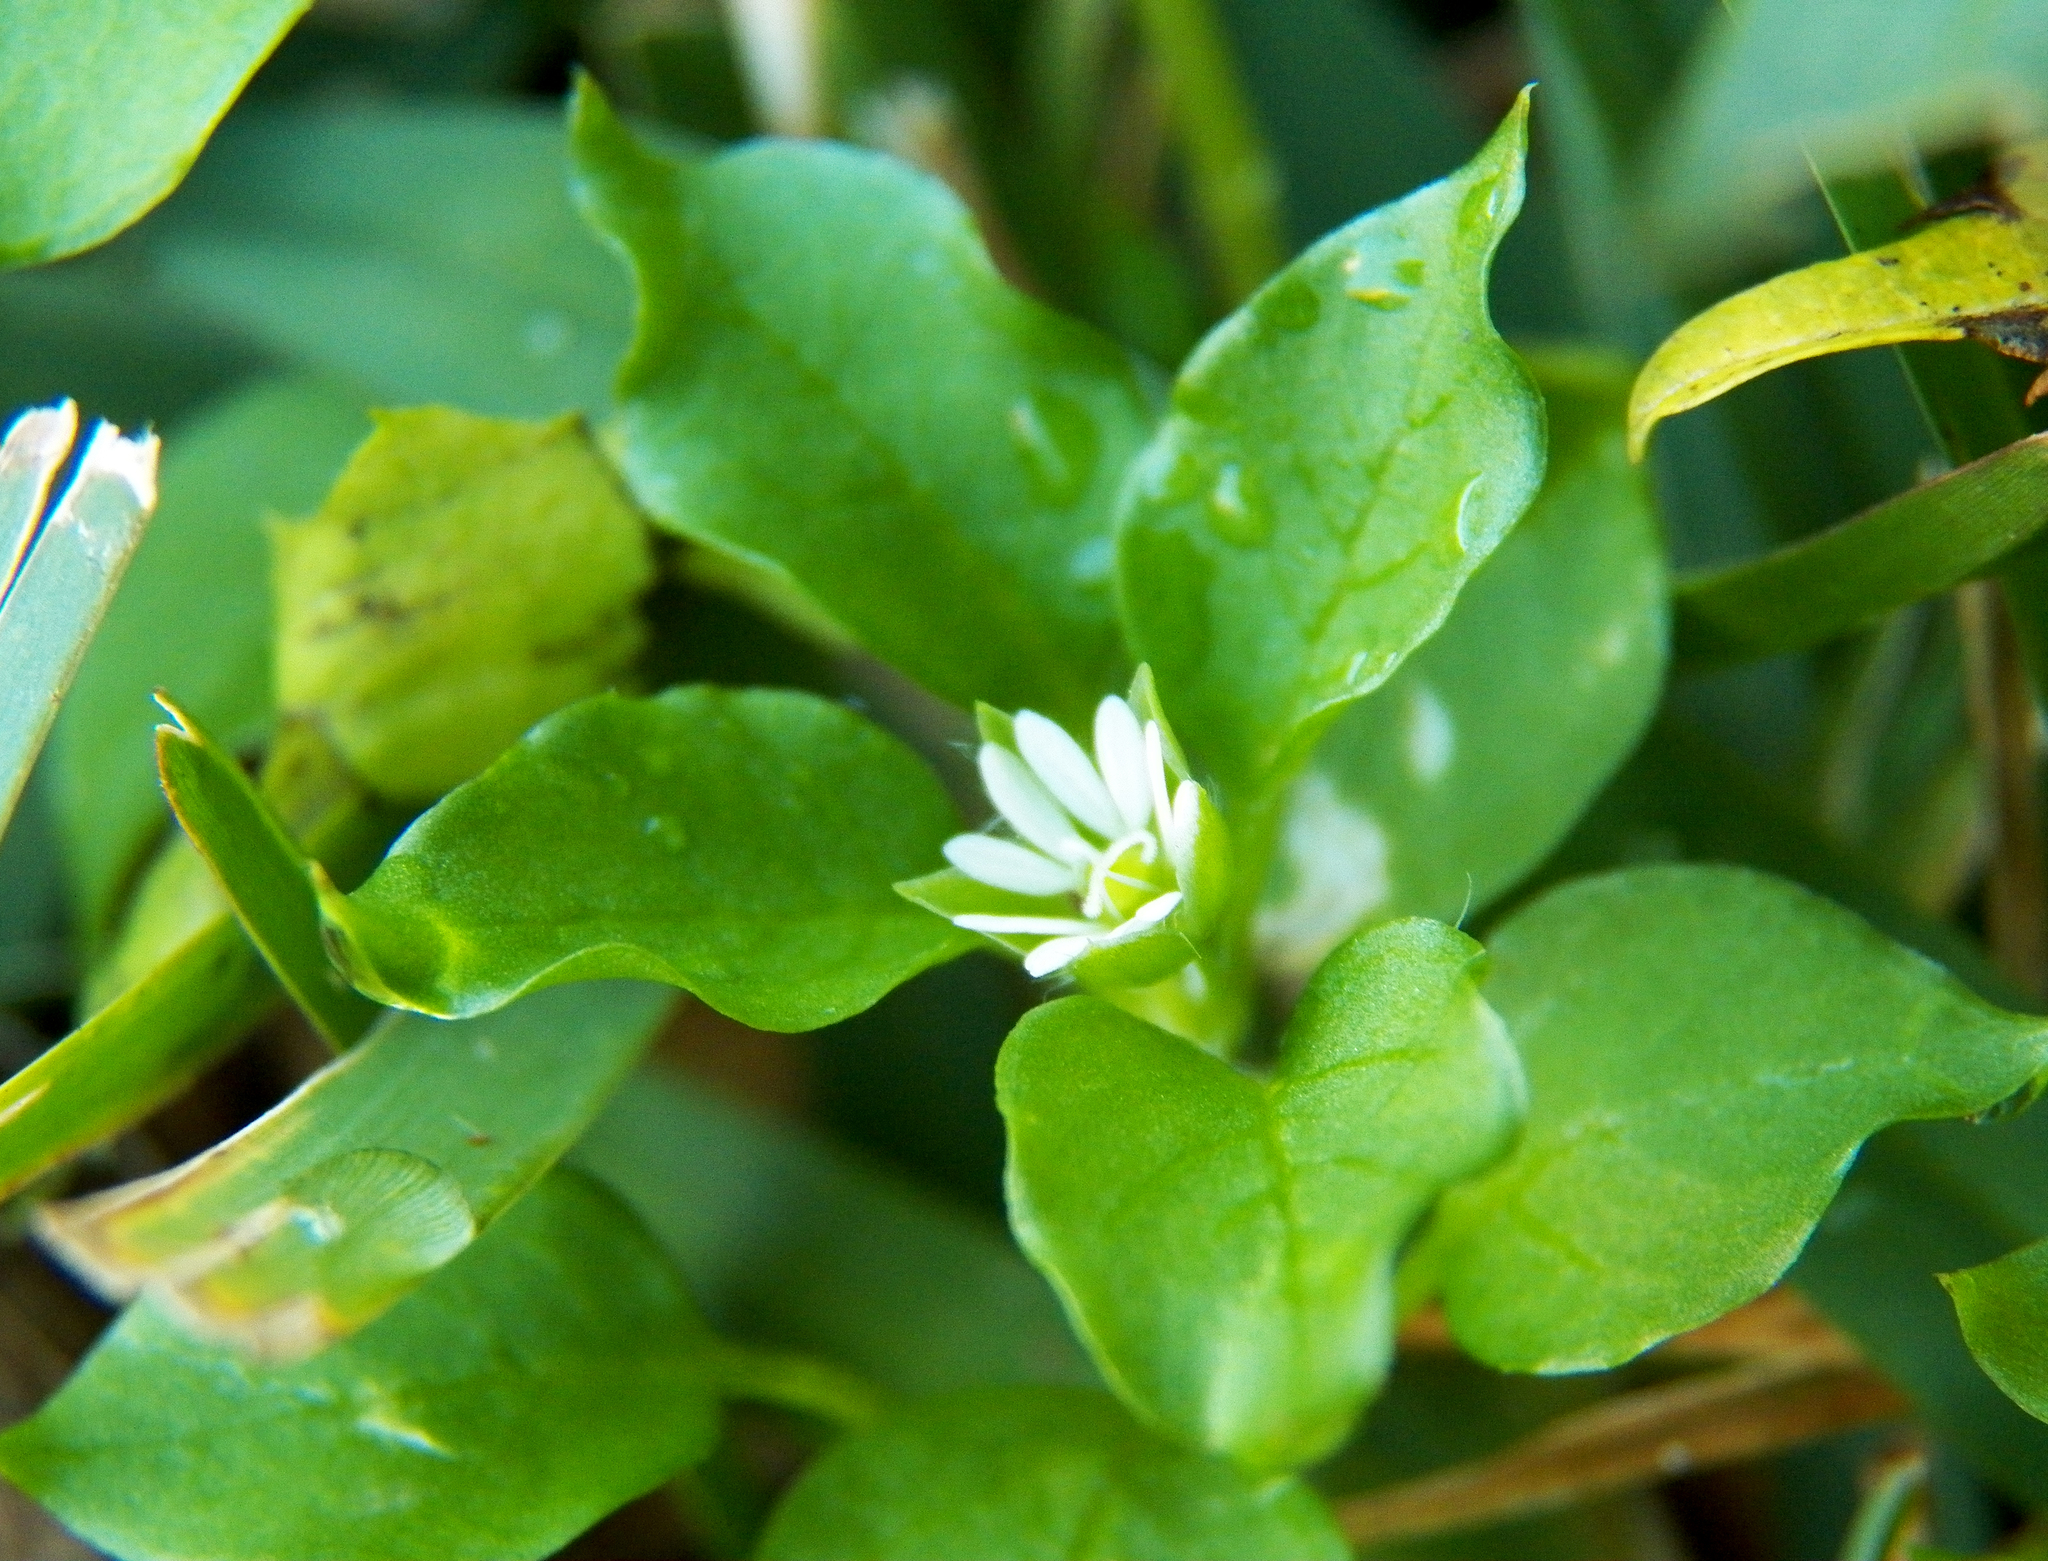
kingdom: Plantae
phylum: Tracheophyta
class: Magnoliopsida
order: Caryophyllales
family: Caryophyllaceae
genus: Stellaria
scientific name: Stellaria media
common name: Common chickweed
